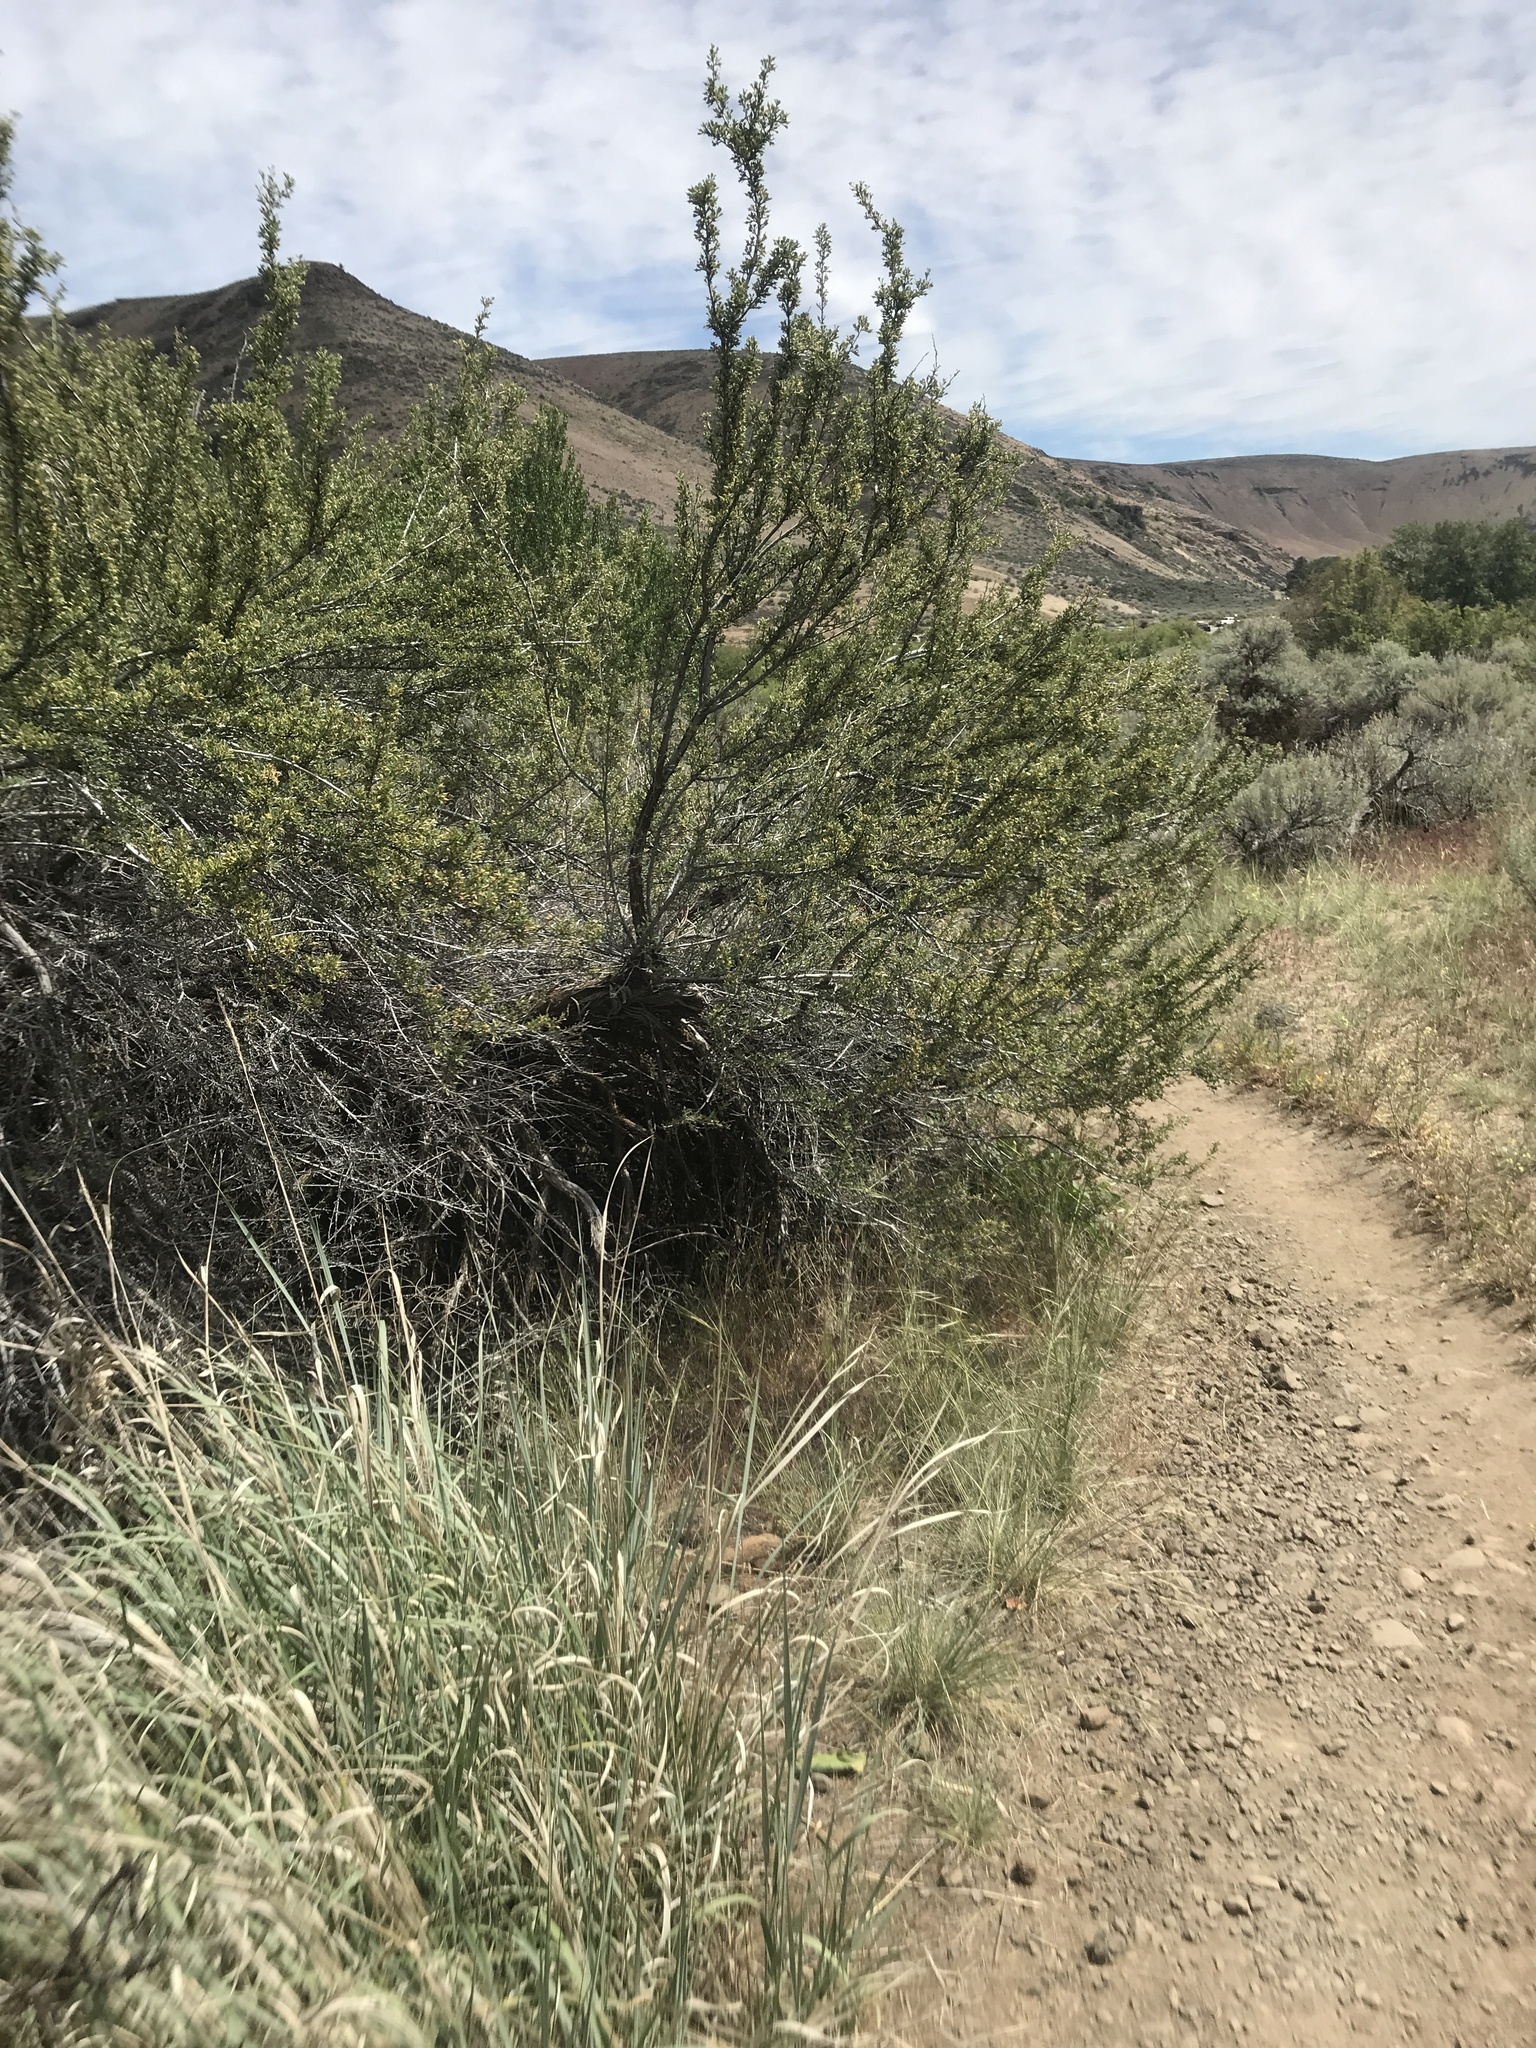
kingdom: Plantae
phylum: Tracheophyta
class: Magnoliopsida
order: Rosales
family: Rosaceae
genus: Purshia
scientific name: Purshia tridentata
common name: Antelope bitterbrush
